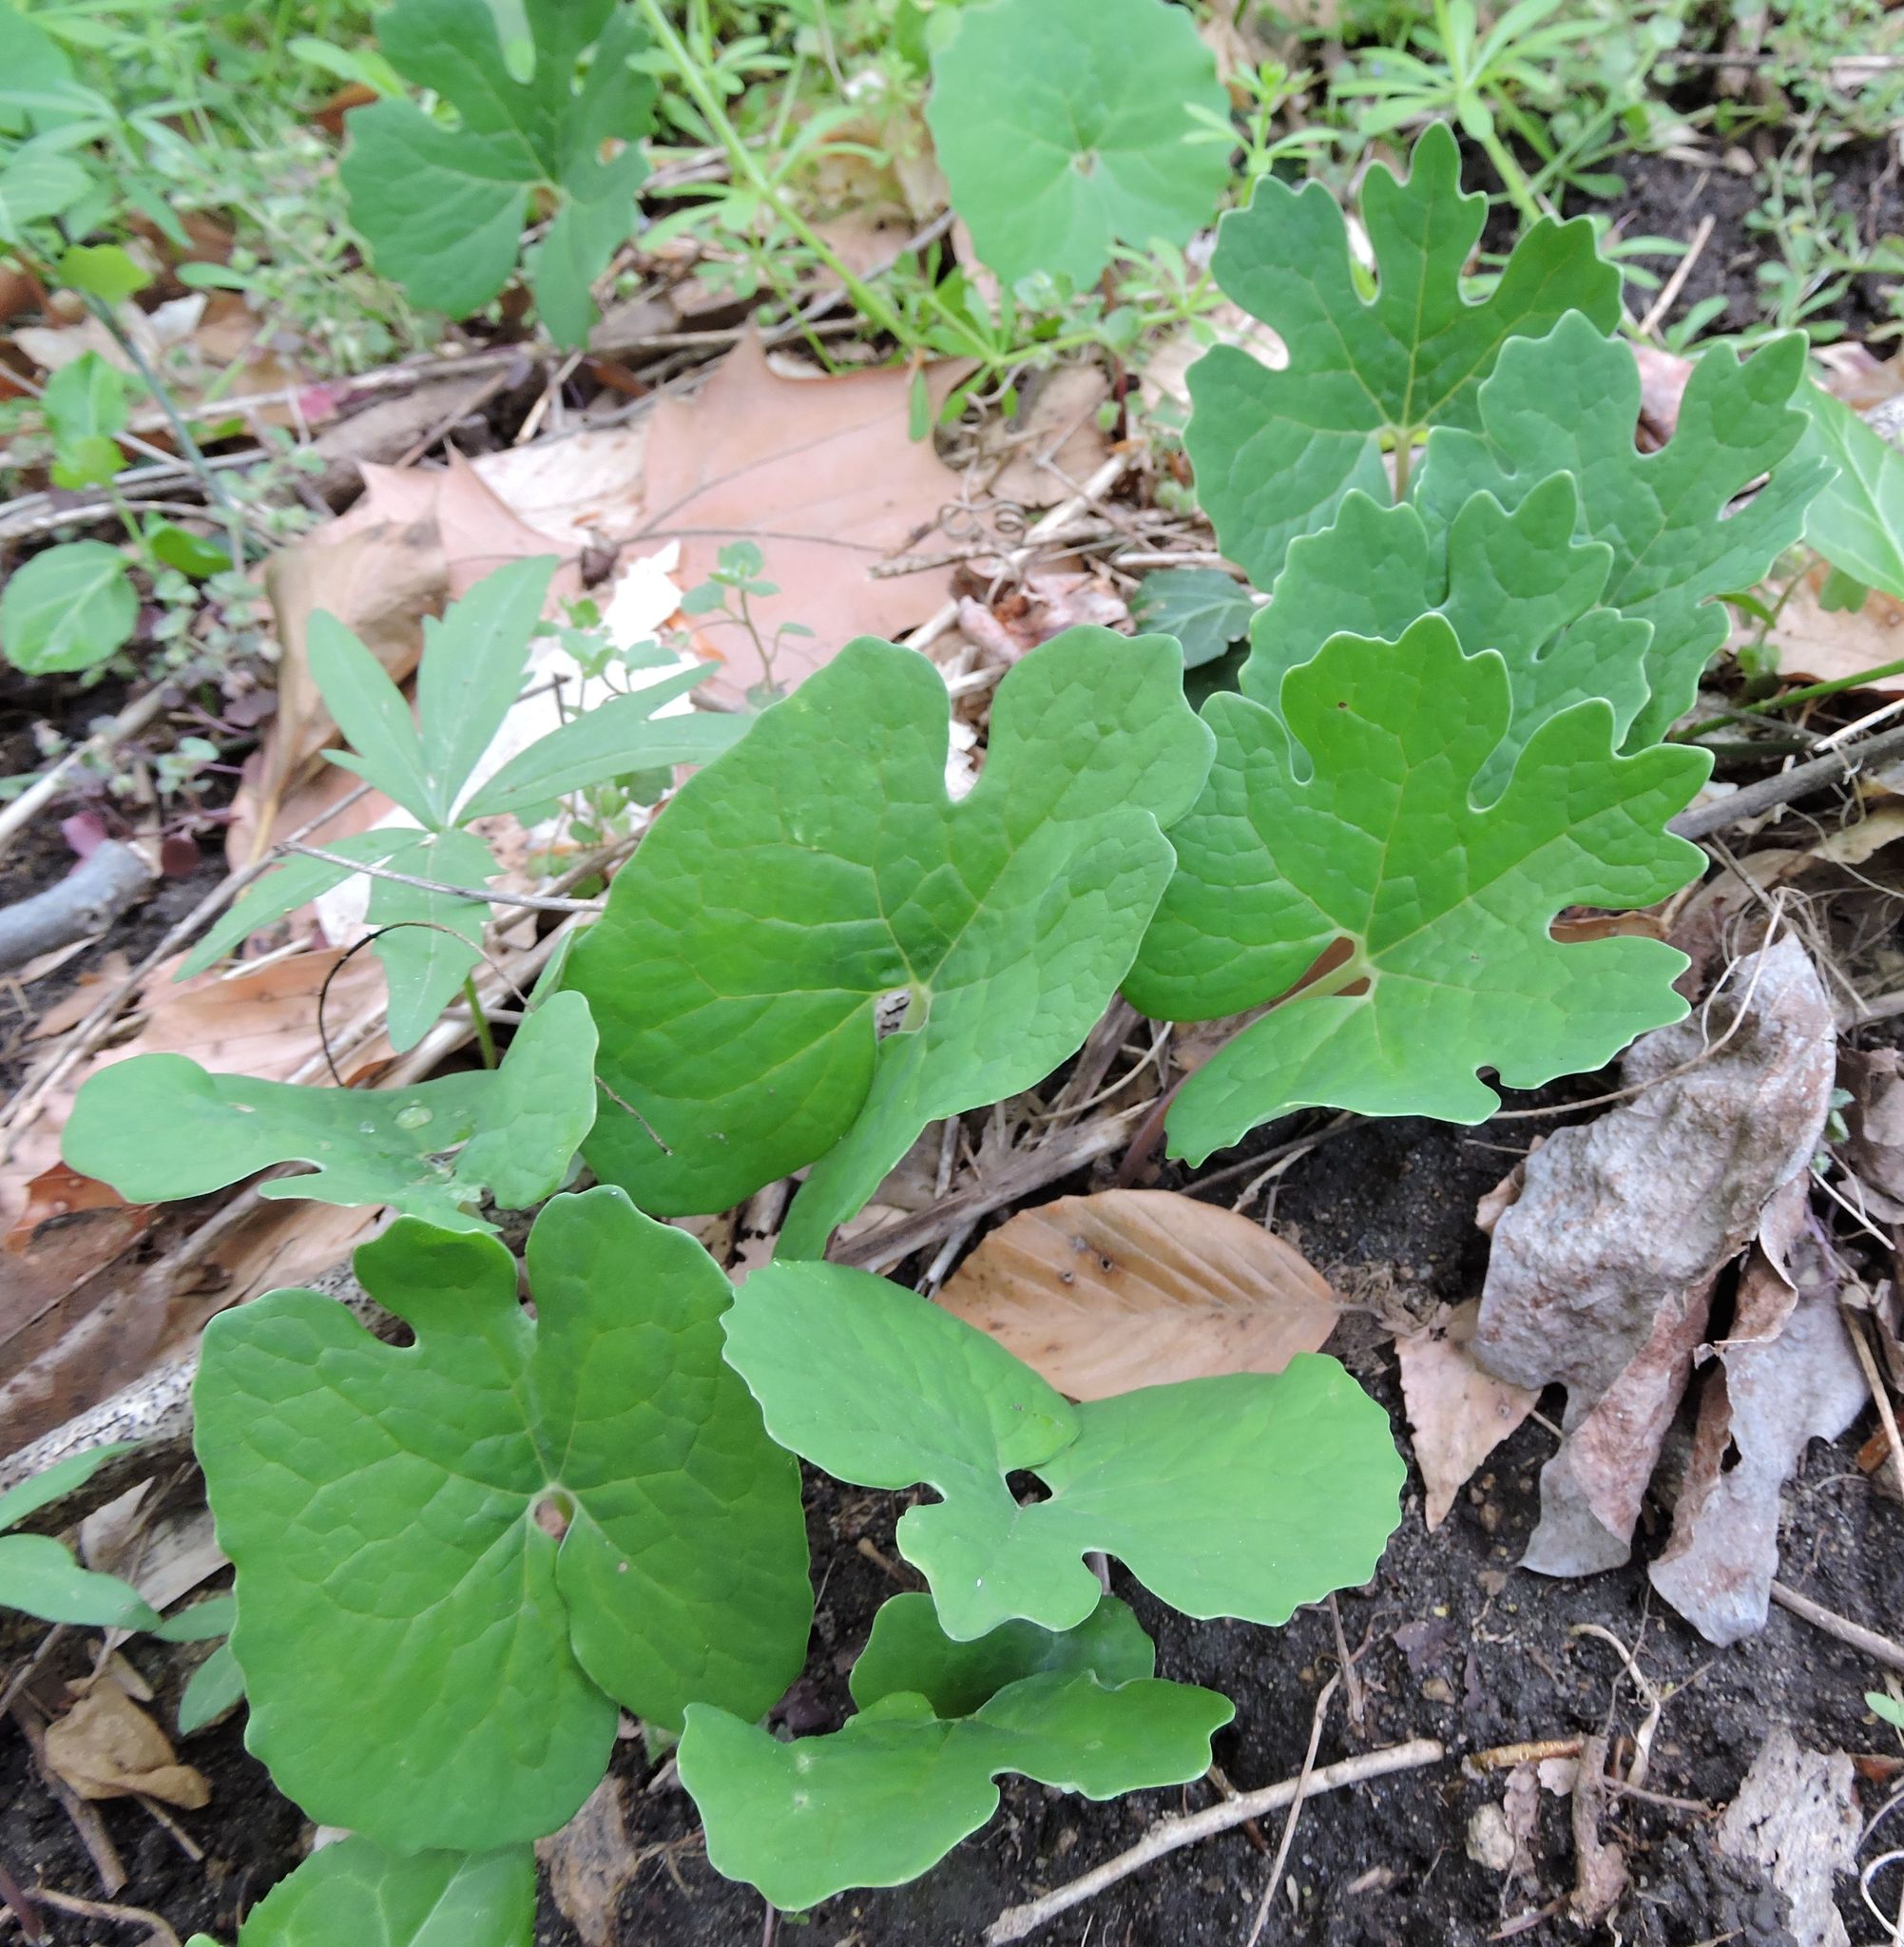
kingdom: Plantae
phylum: Tracheophyta
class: Magnoliopsida
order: Ranunculales
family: Papaveraceae
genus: Sanguinaria
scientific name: Sanguinaria canadensis
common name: Bloodroot
